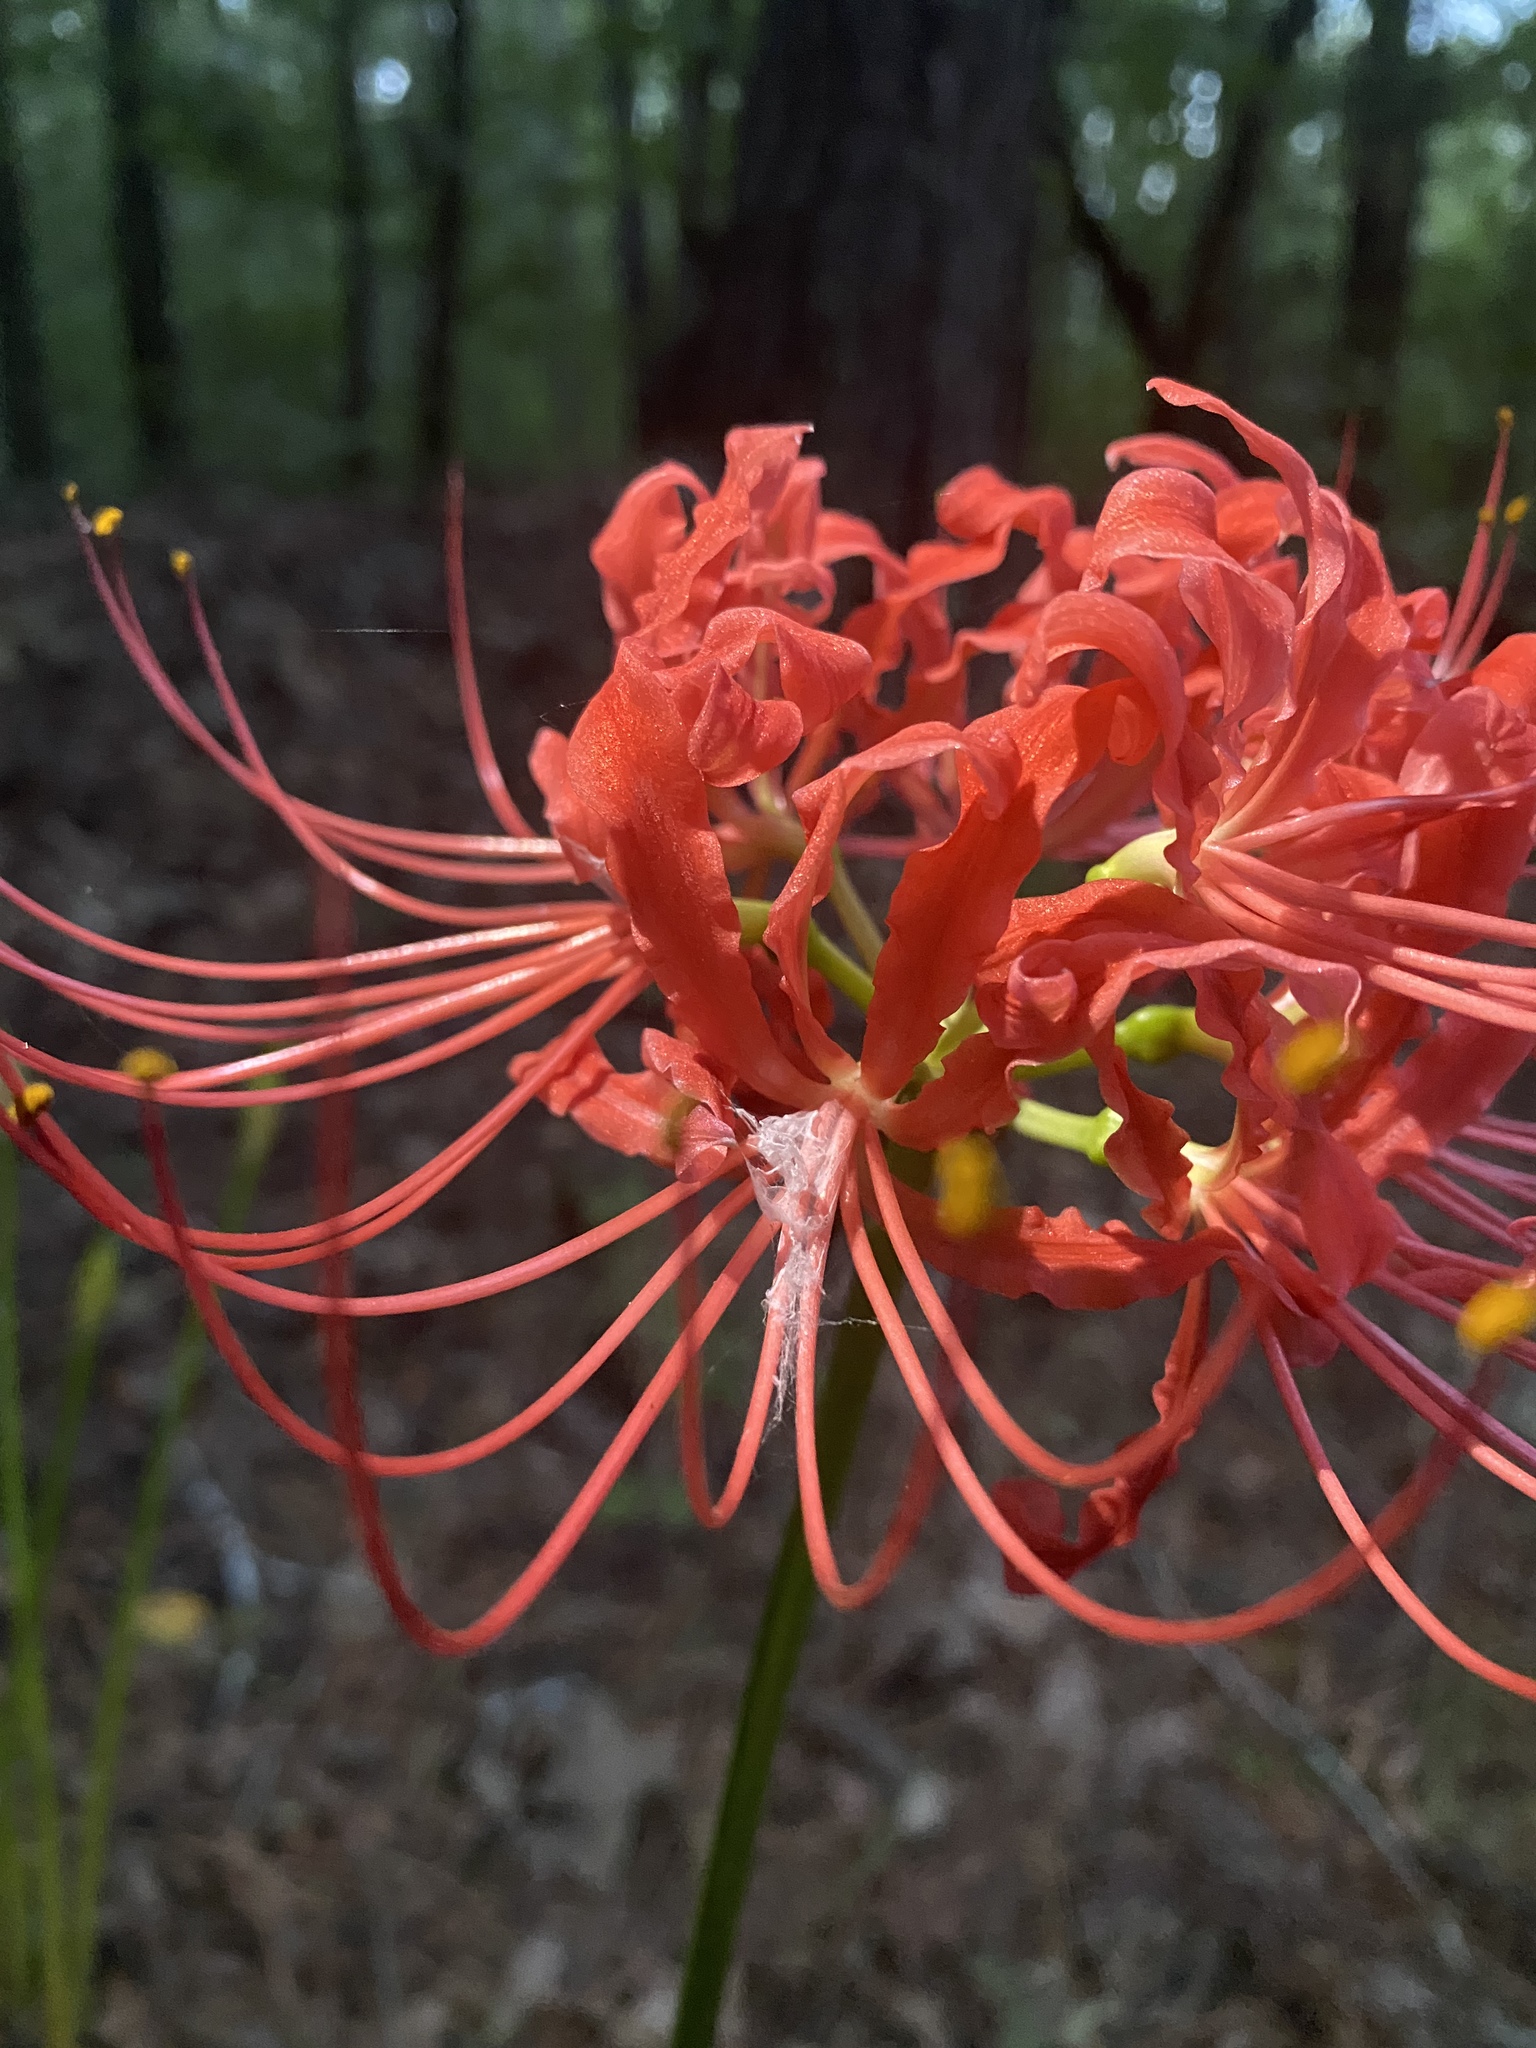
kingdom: Plantae
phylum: Tracheophyta
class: Liliopsida
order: Asparagales
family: Amaryllidaceae
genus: Lycoris
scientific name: Lycoris radiata
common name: Red spider lily
